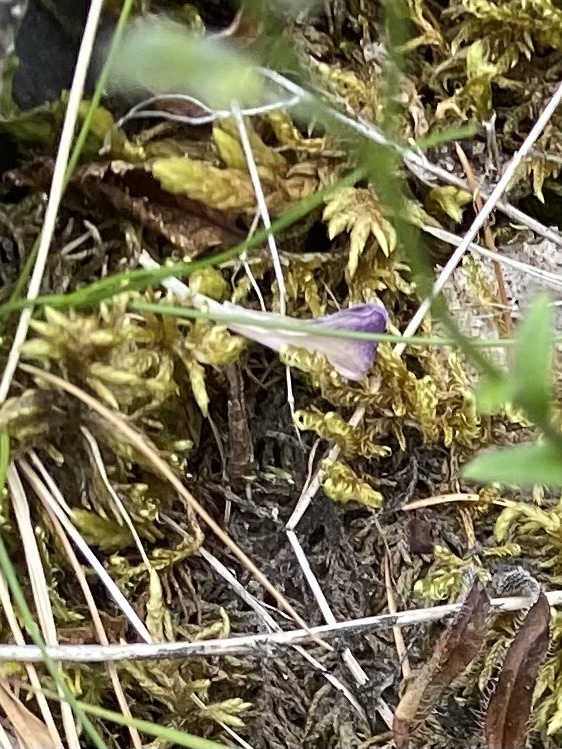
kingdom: Plantae
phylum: Tracheophyta
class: Magnoliopsida
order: Fabales
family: Fabaceae
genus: Astragalus
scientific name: Astragalus alpinus
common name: Alpine milk-vetch
